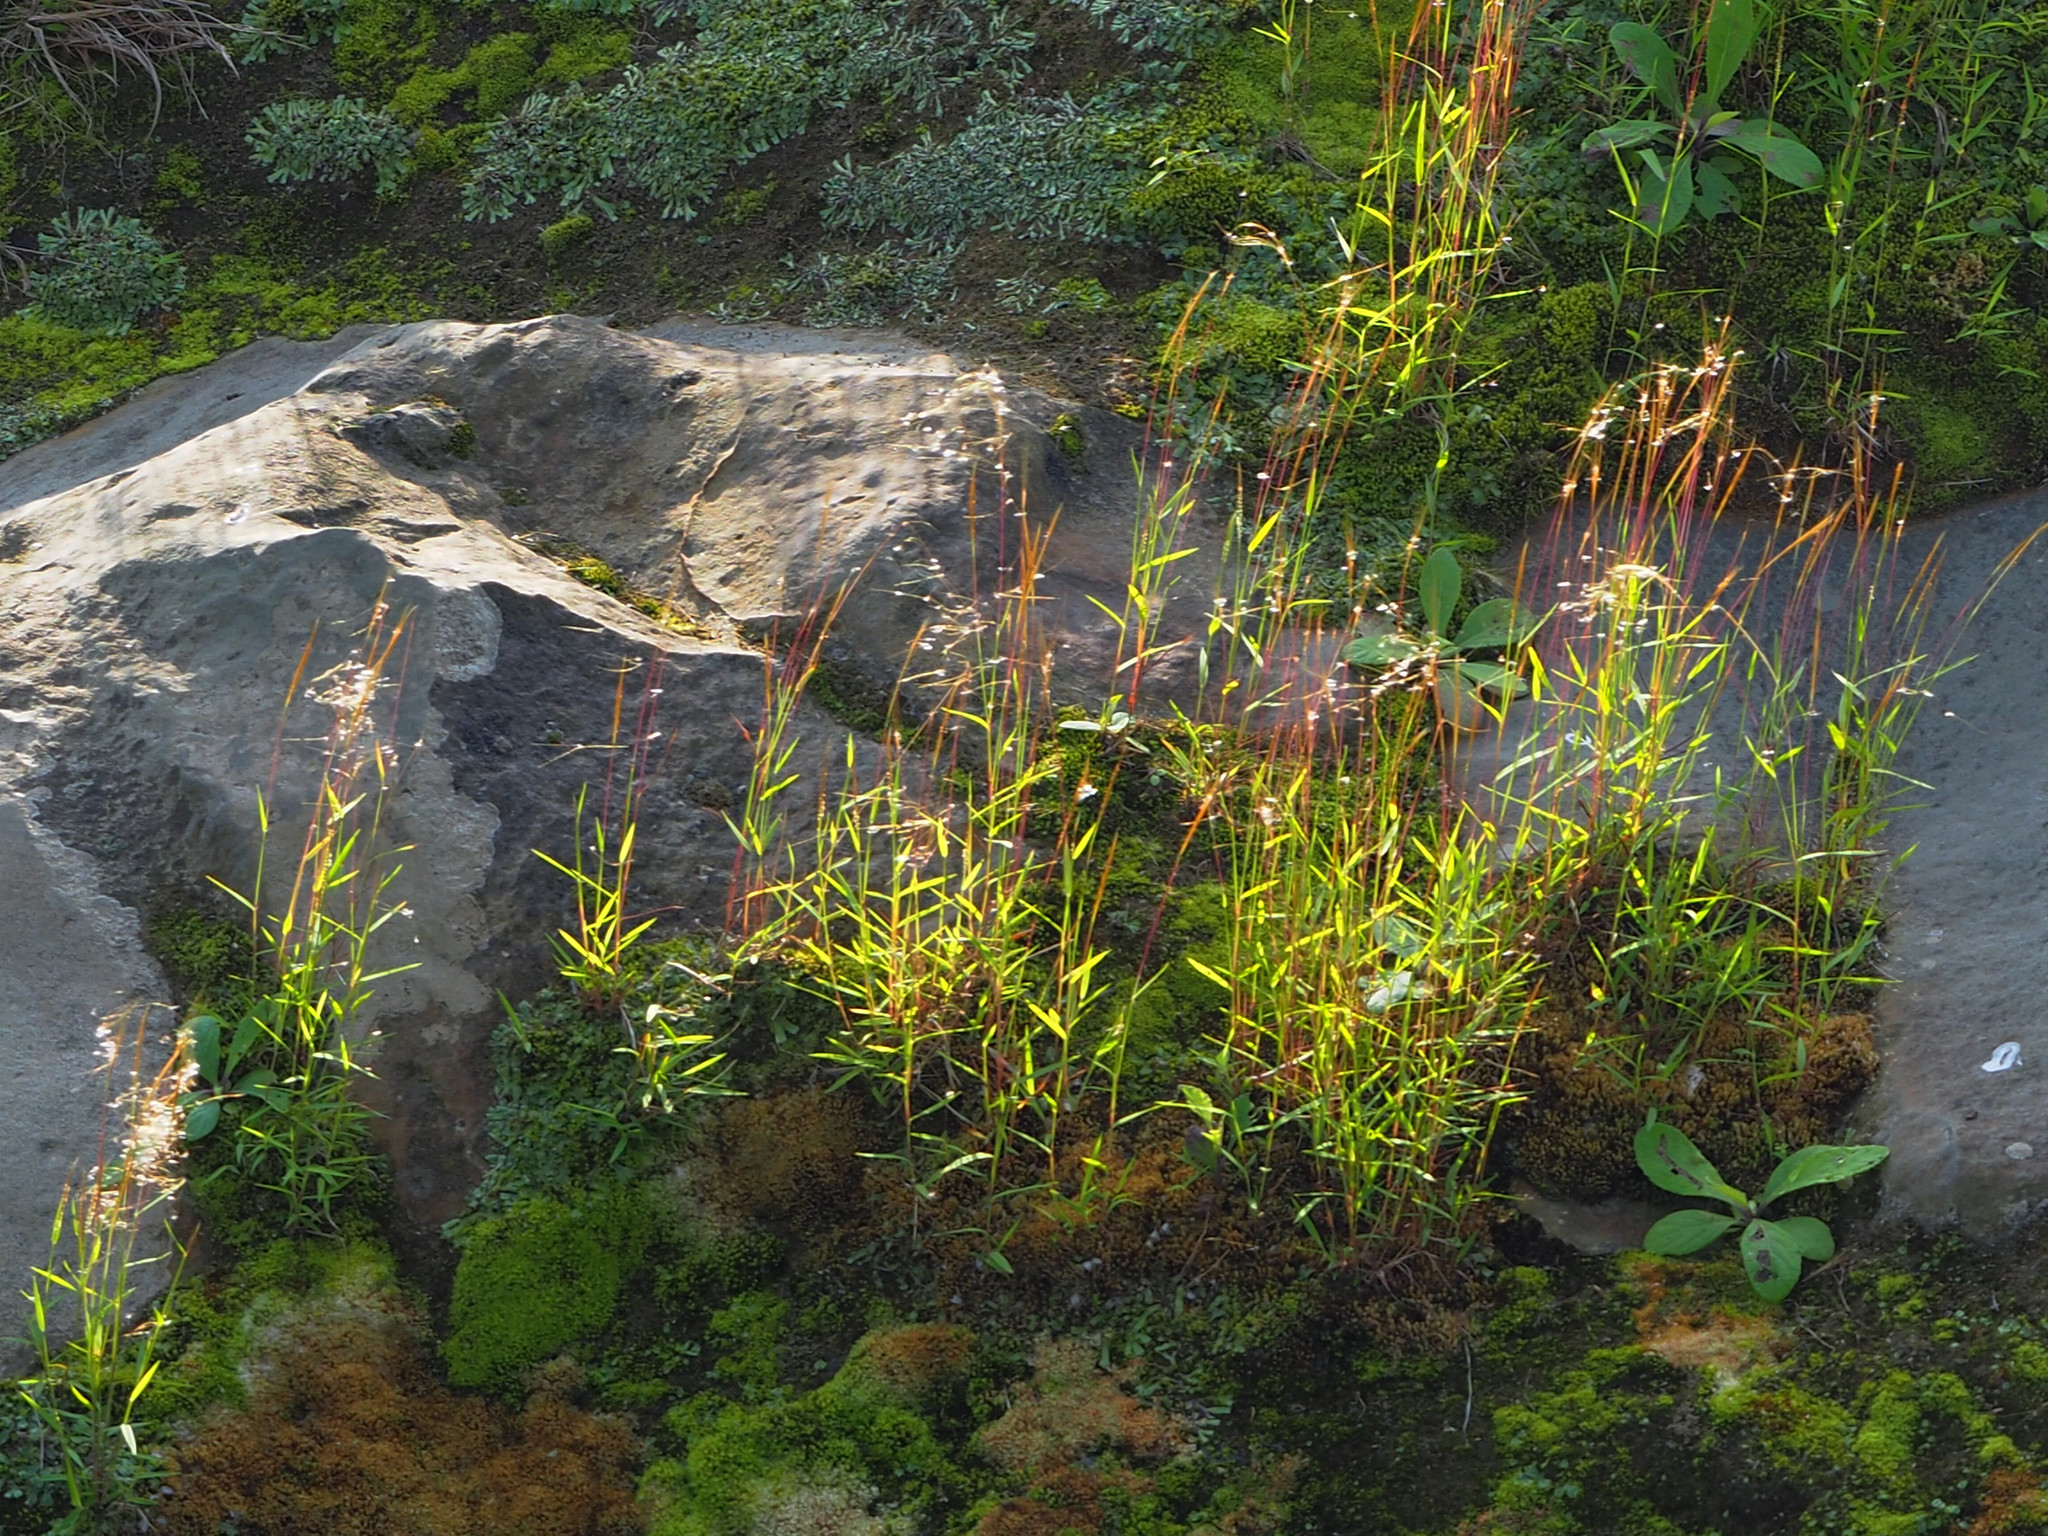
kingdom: Plantae
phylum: Tracheophyta
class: Liliopsida
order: Poales
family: Poaceae
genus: Pogonatherum
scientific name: Pogonatherum crinitum
